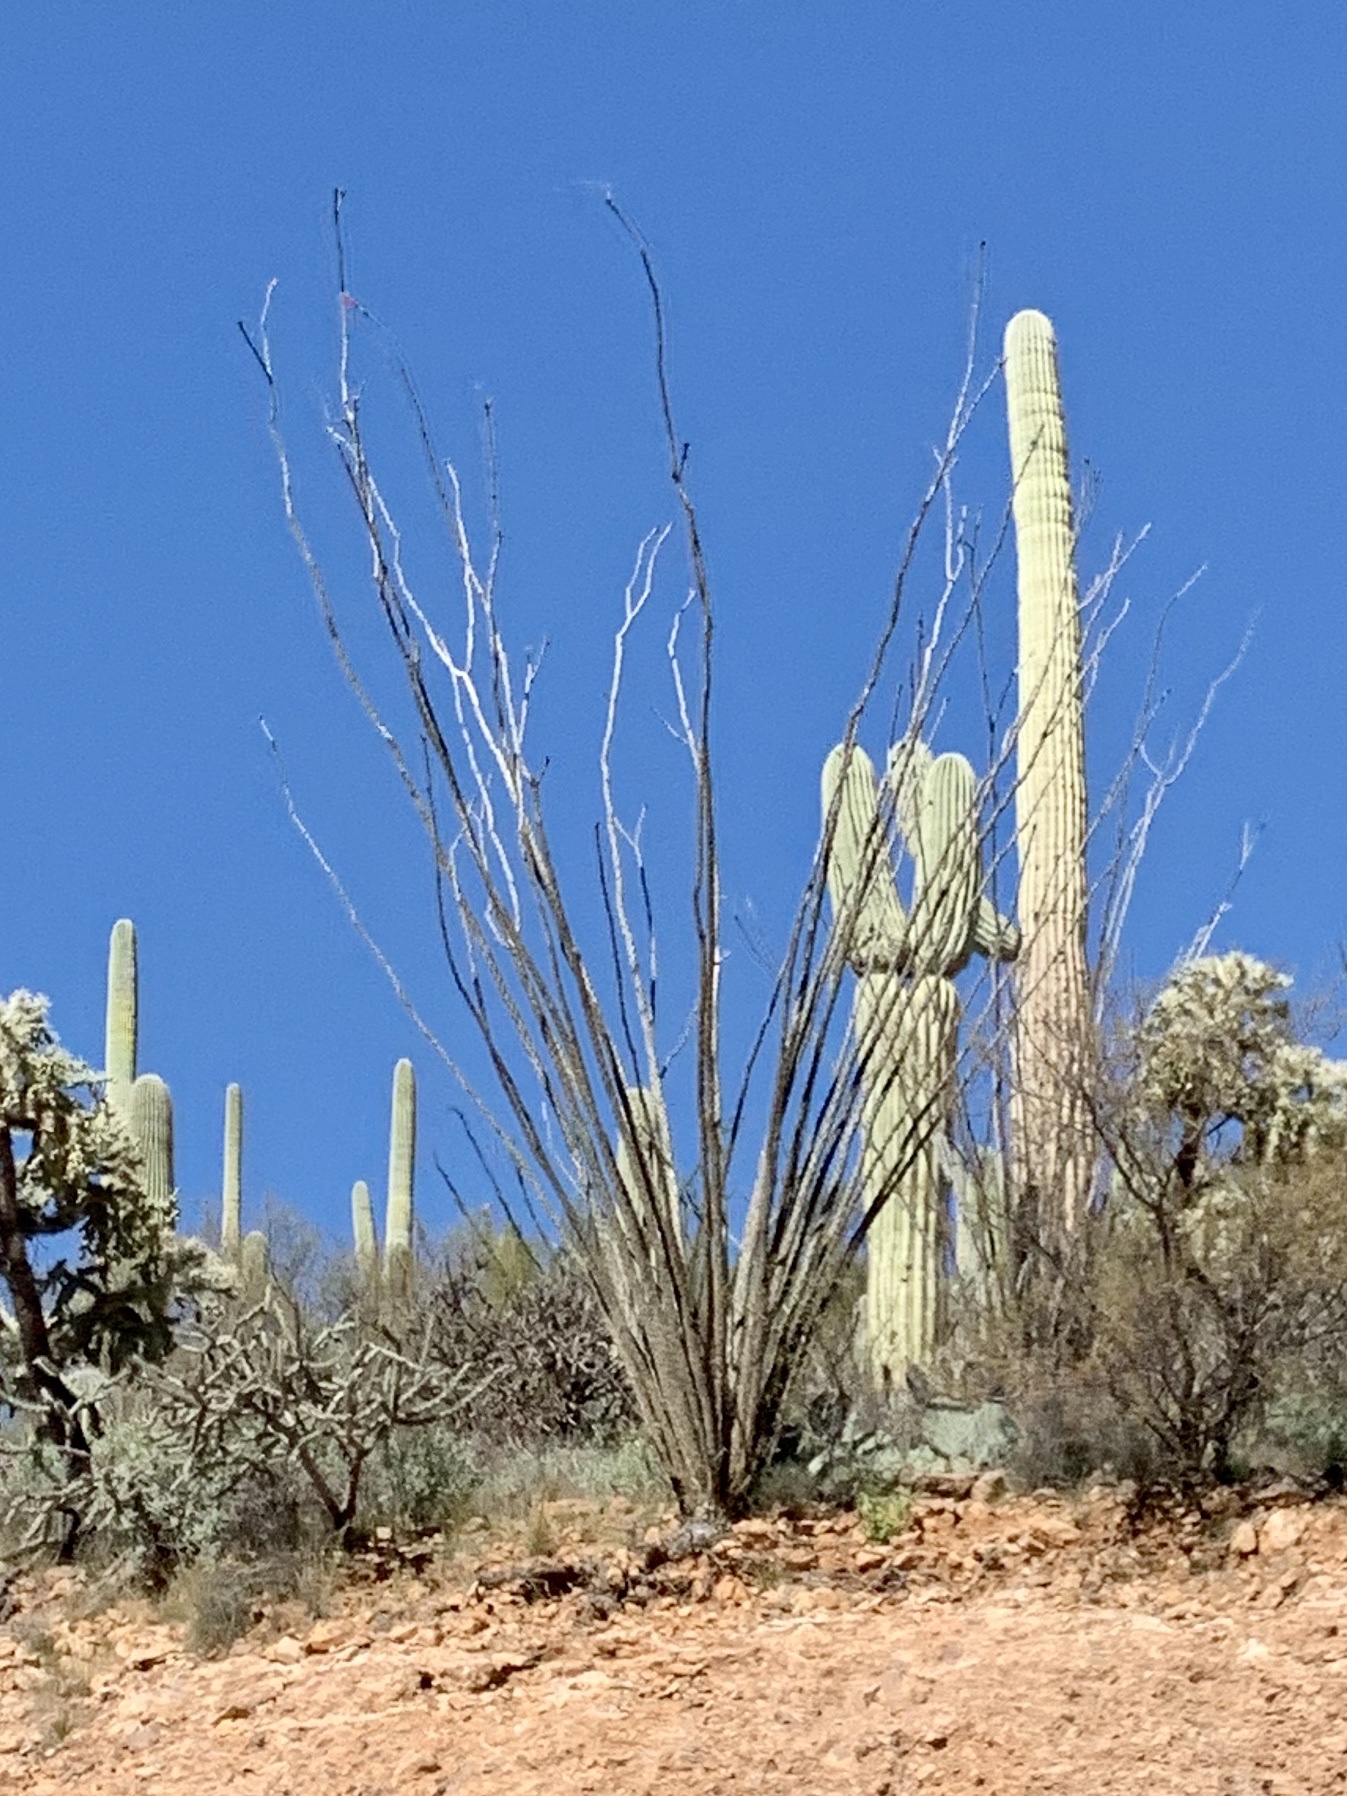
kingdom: Plantae
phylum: Tracheophyta
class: Magnoliopsida
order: Ericales
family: Fouquieriaceae
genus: Fouquieria
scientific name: Fouquieria splendens
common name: Vine-cactus
